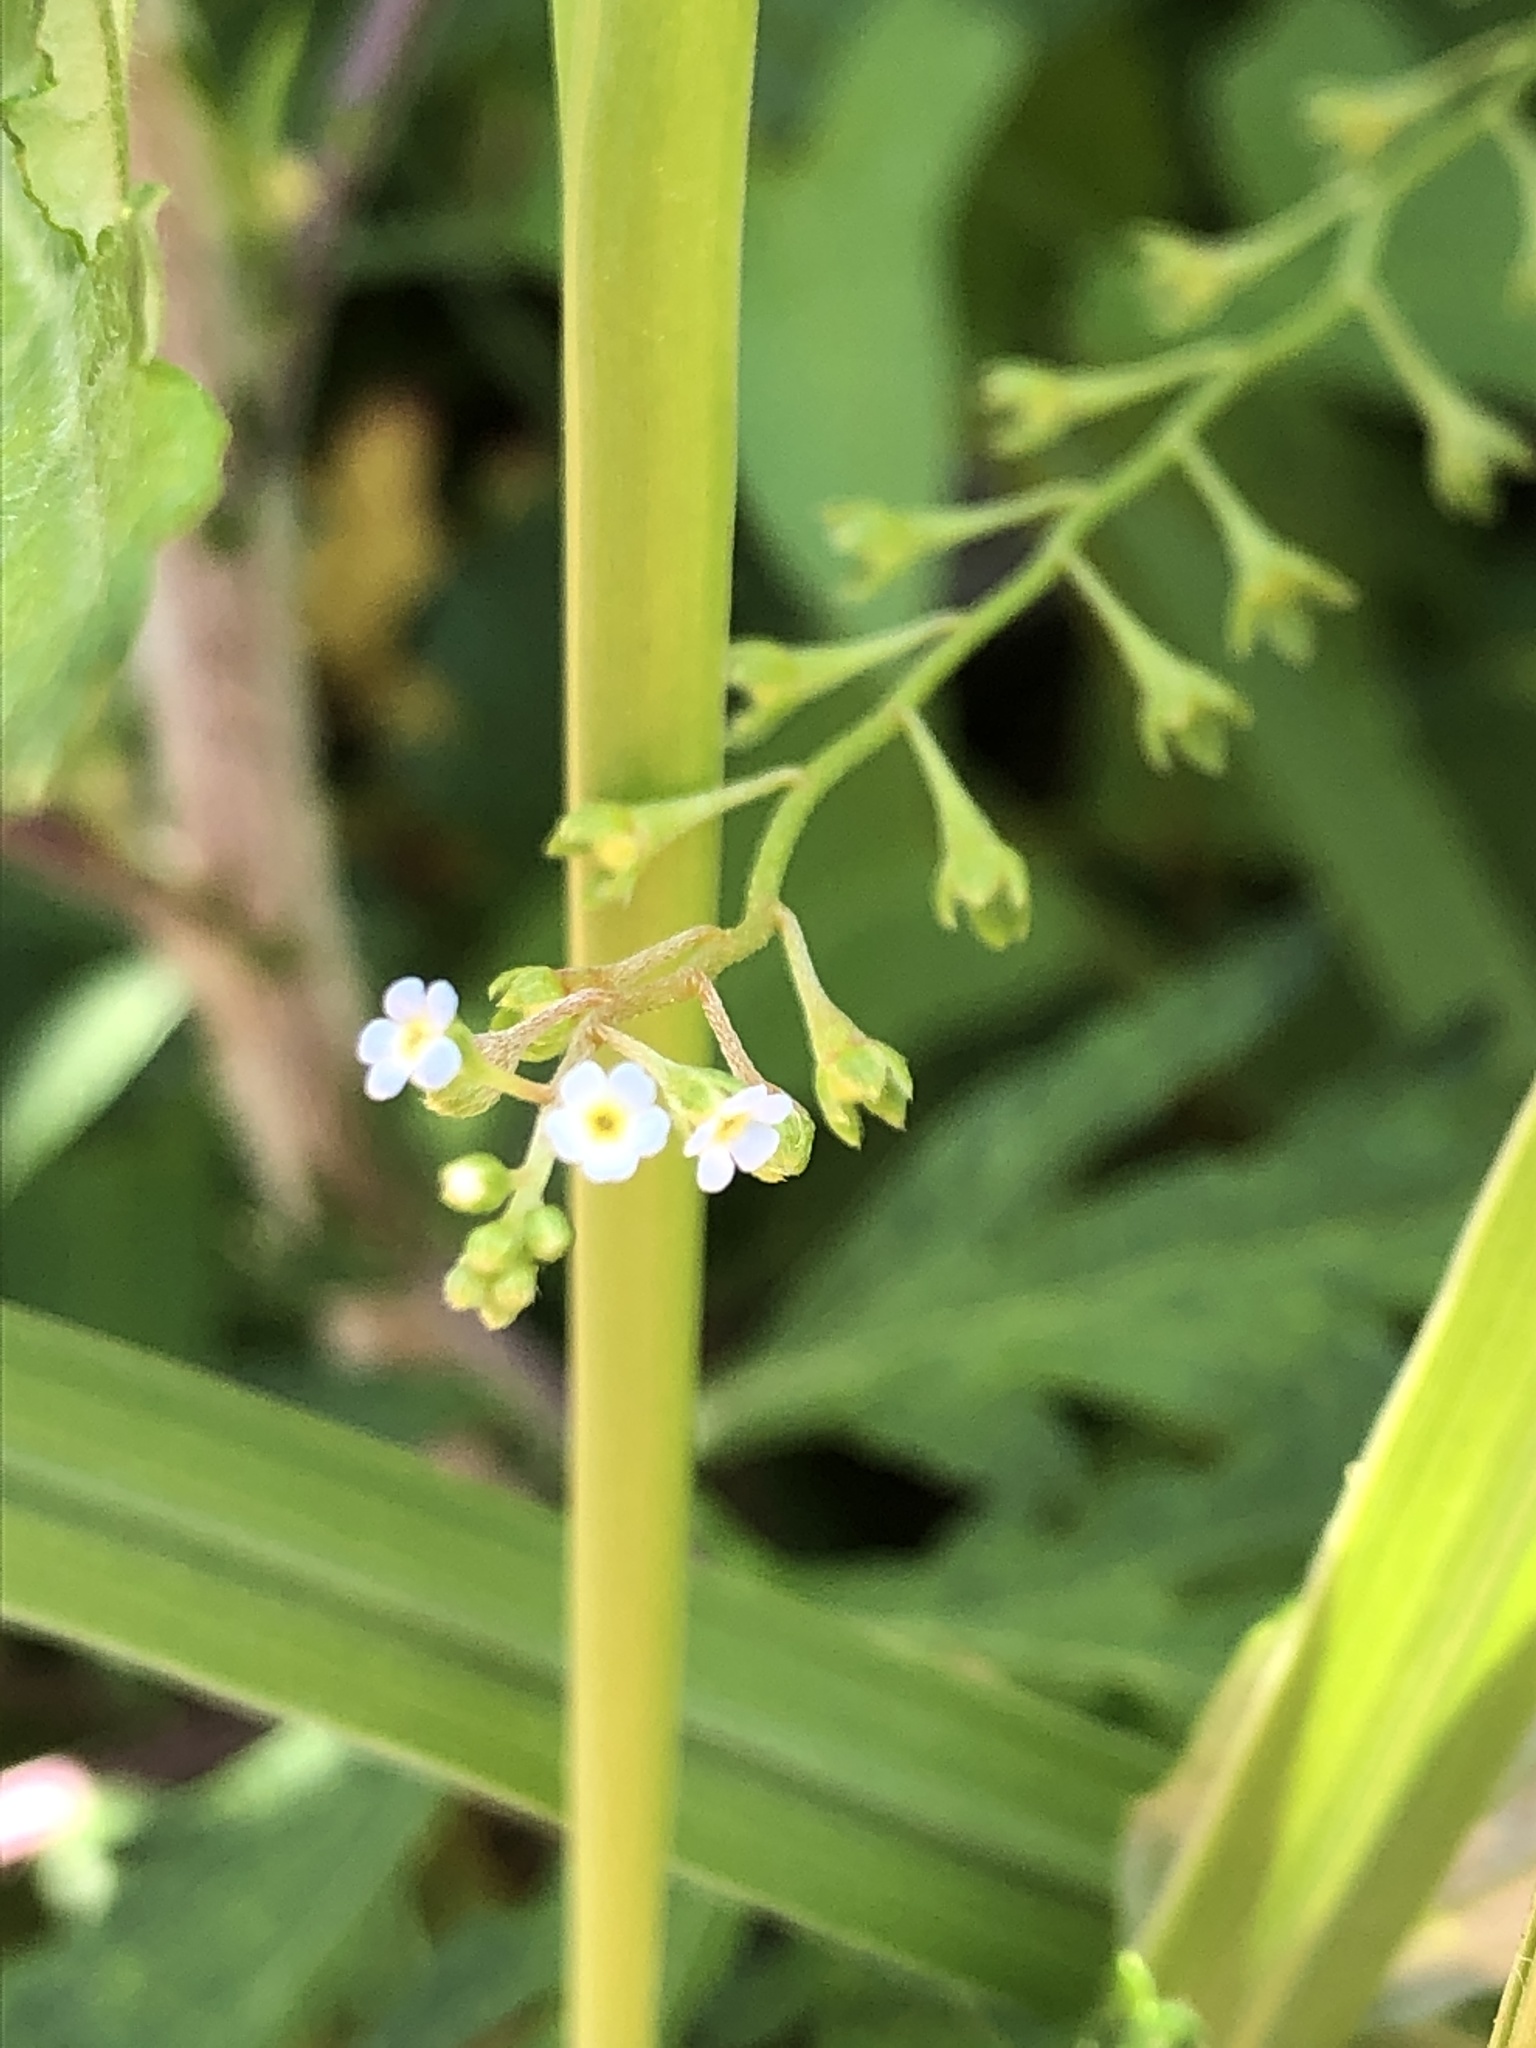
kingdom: Plantae
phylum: Tracheophyta
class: Magnoliopsida
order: Boraginales
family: Boraginaceae
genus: Trigonotis
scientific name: Trigonotis peduncularis
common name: Cucumber herb
